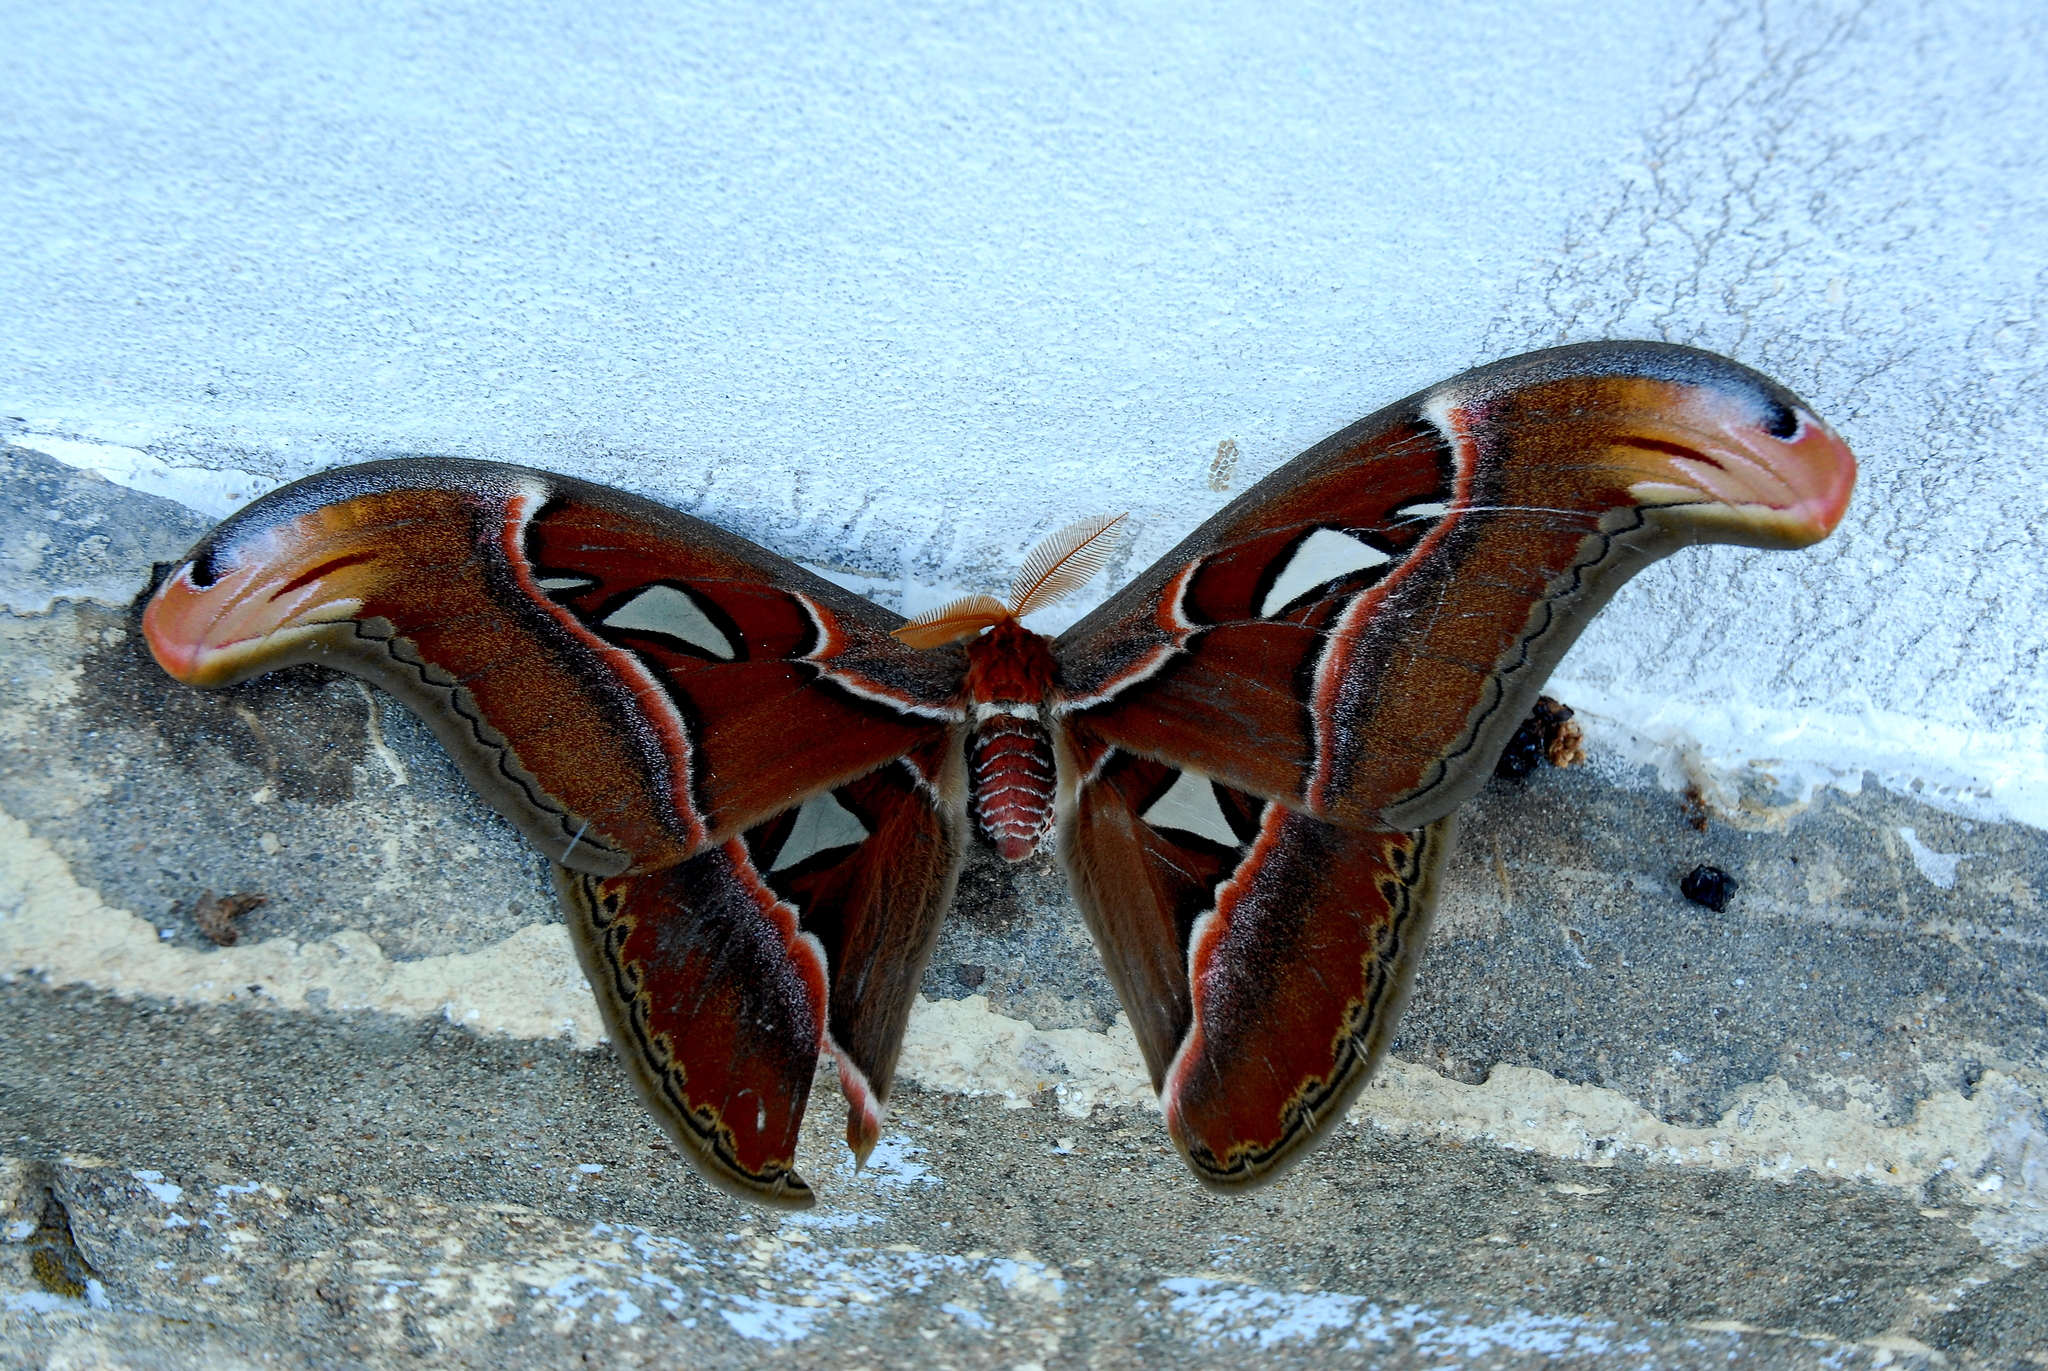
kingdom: Animalia
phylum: Arthropoda
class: Insecta
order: Lepidoptera
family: Saturniidae
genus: Attacus
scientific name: Attacus taprobanis
